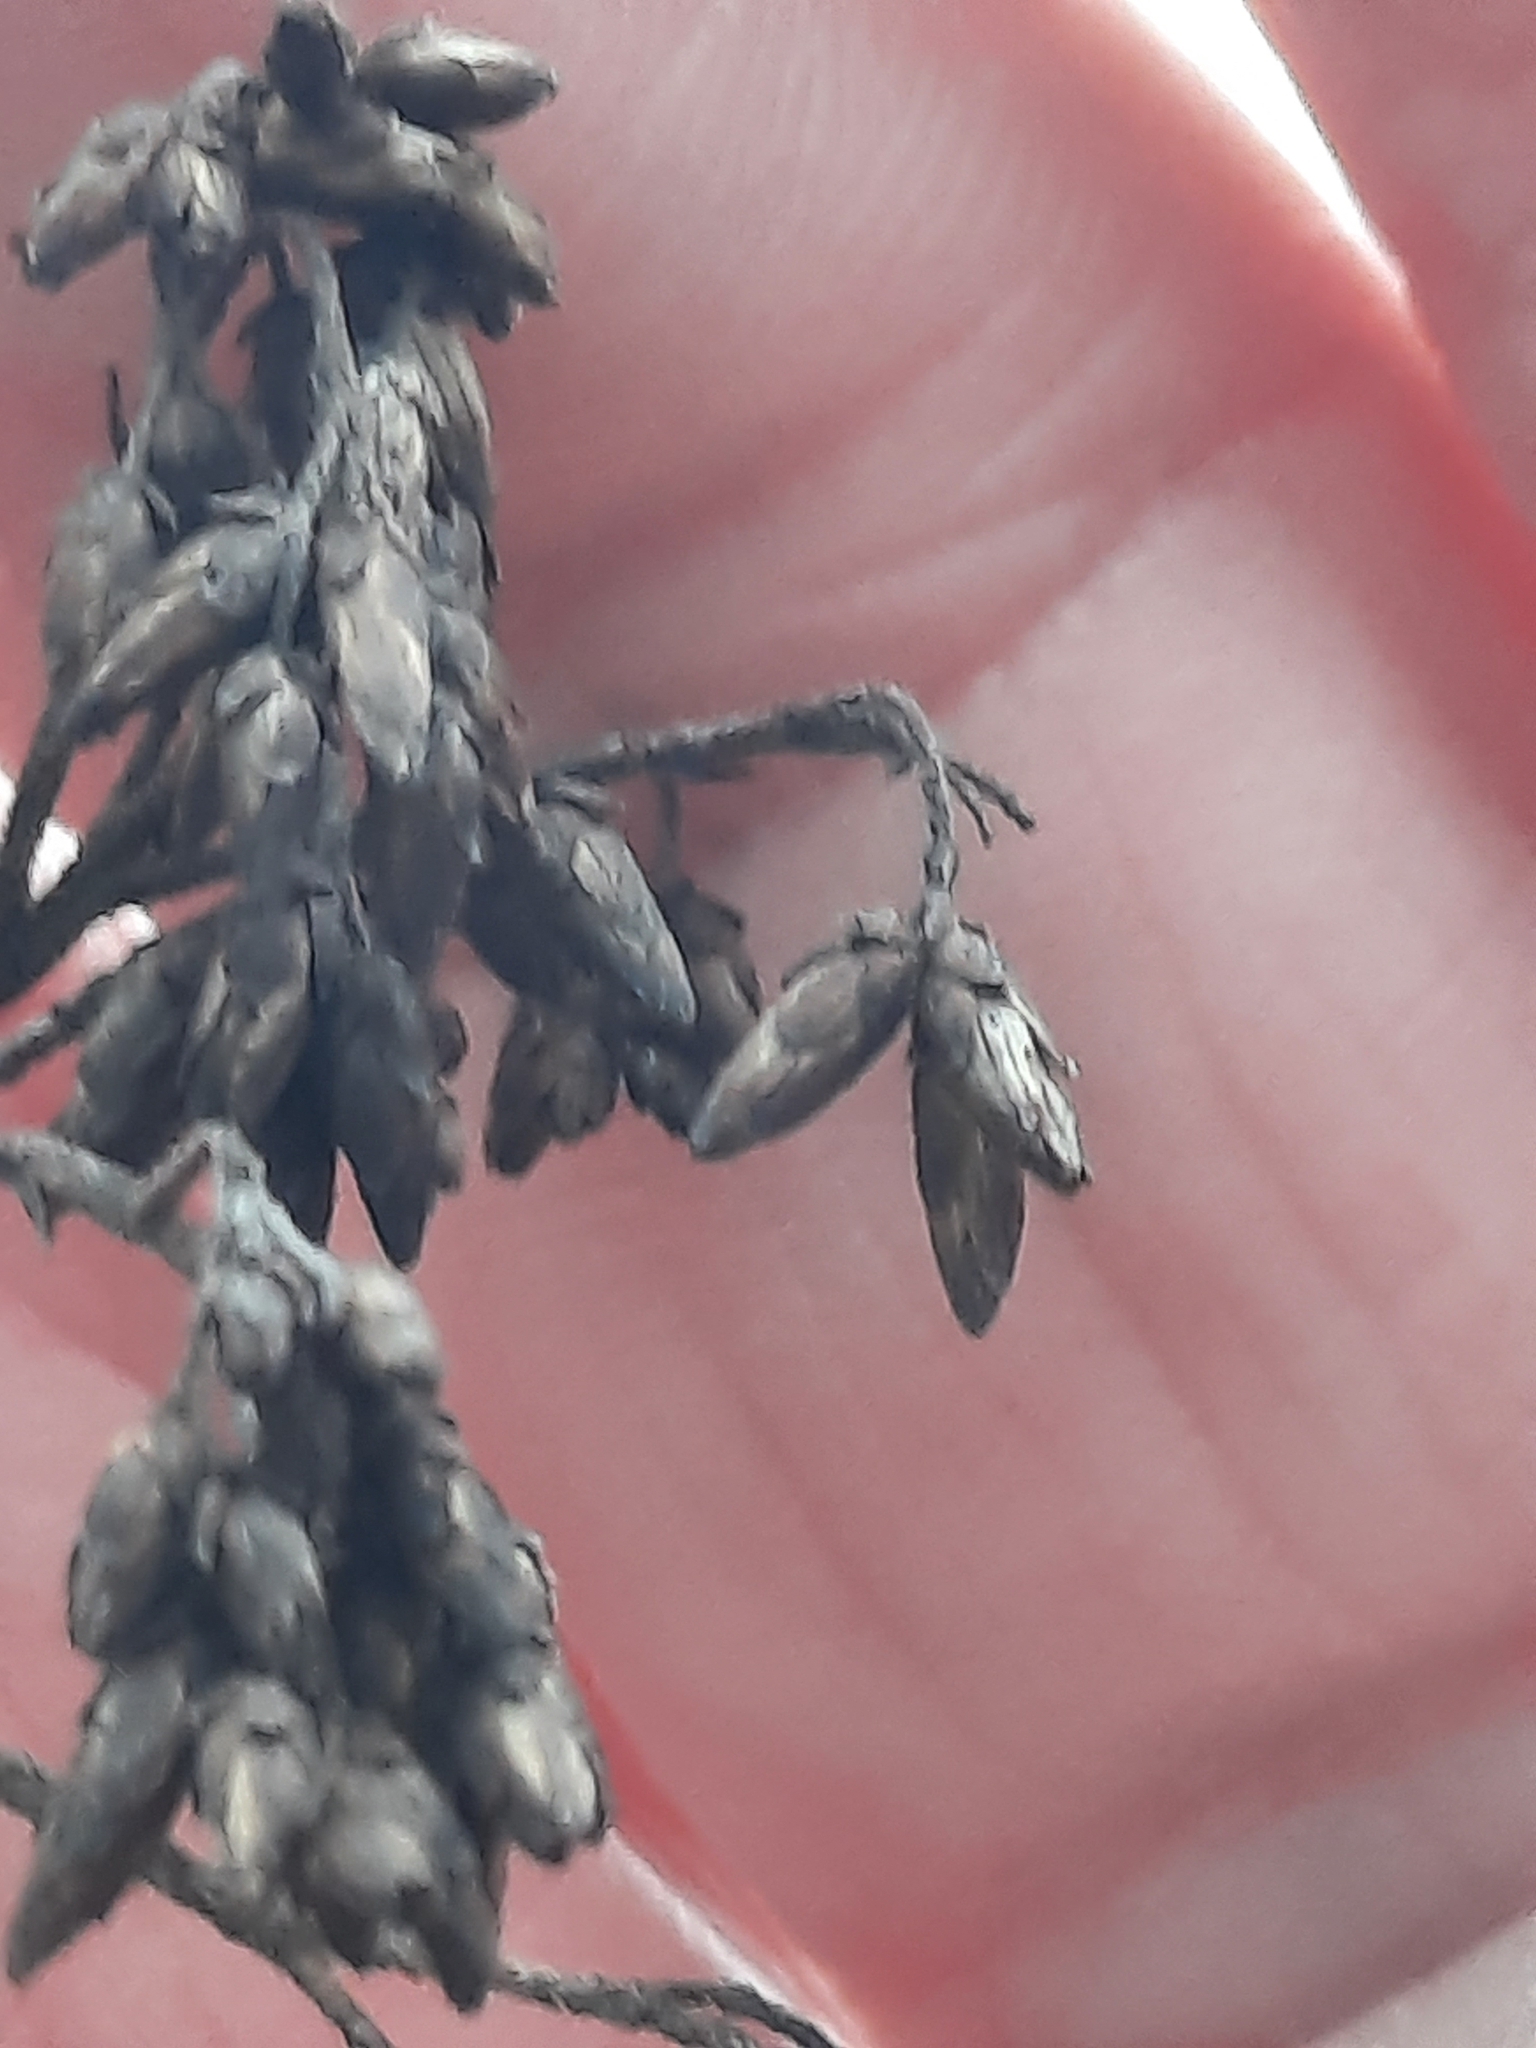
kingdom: Plantae
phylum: Tracheophyta
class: Magnoliopsida
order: Asterales
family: Asteraceae
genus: Eutrochium
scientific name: Eutrochium fistulosum
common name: Trumpetweed
